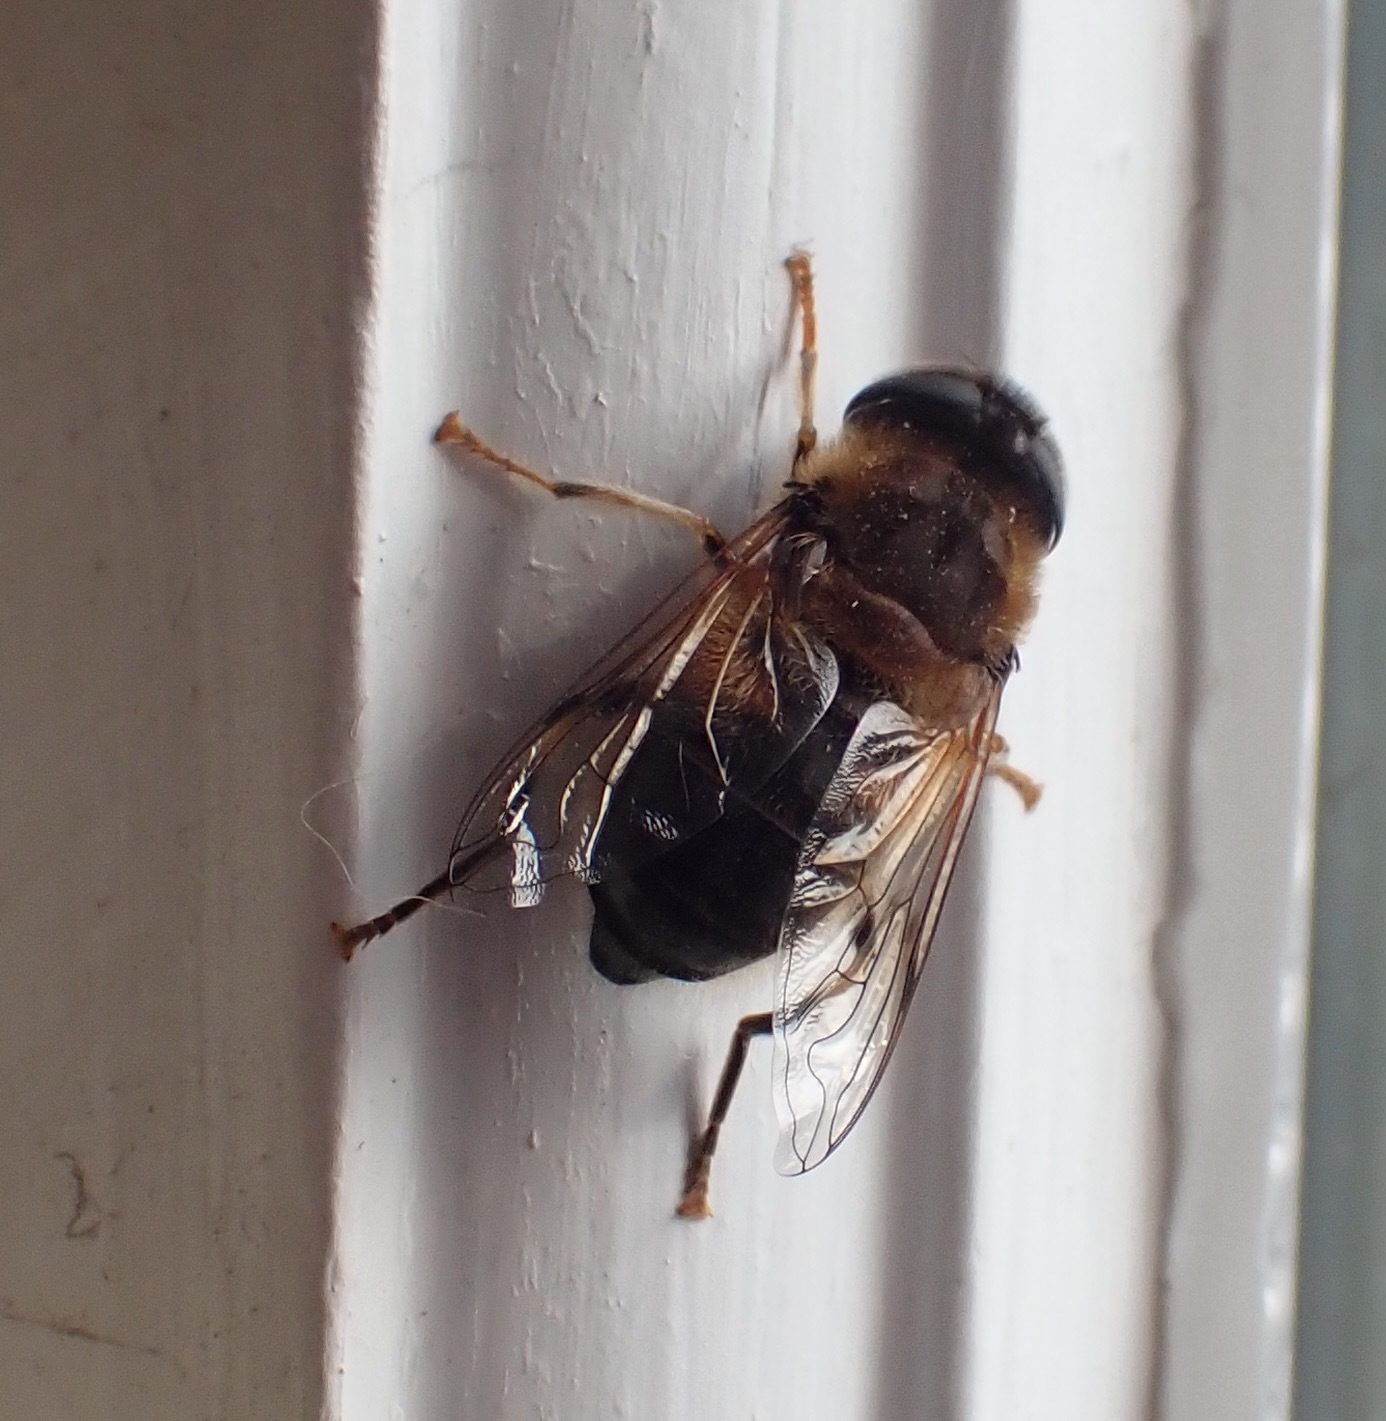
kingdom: Animalia
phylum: Arthropoda
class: Insecta
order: Diptera
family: Syrphidae
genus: Eristalis
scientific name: Eristalis pertinax
